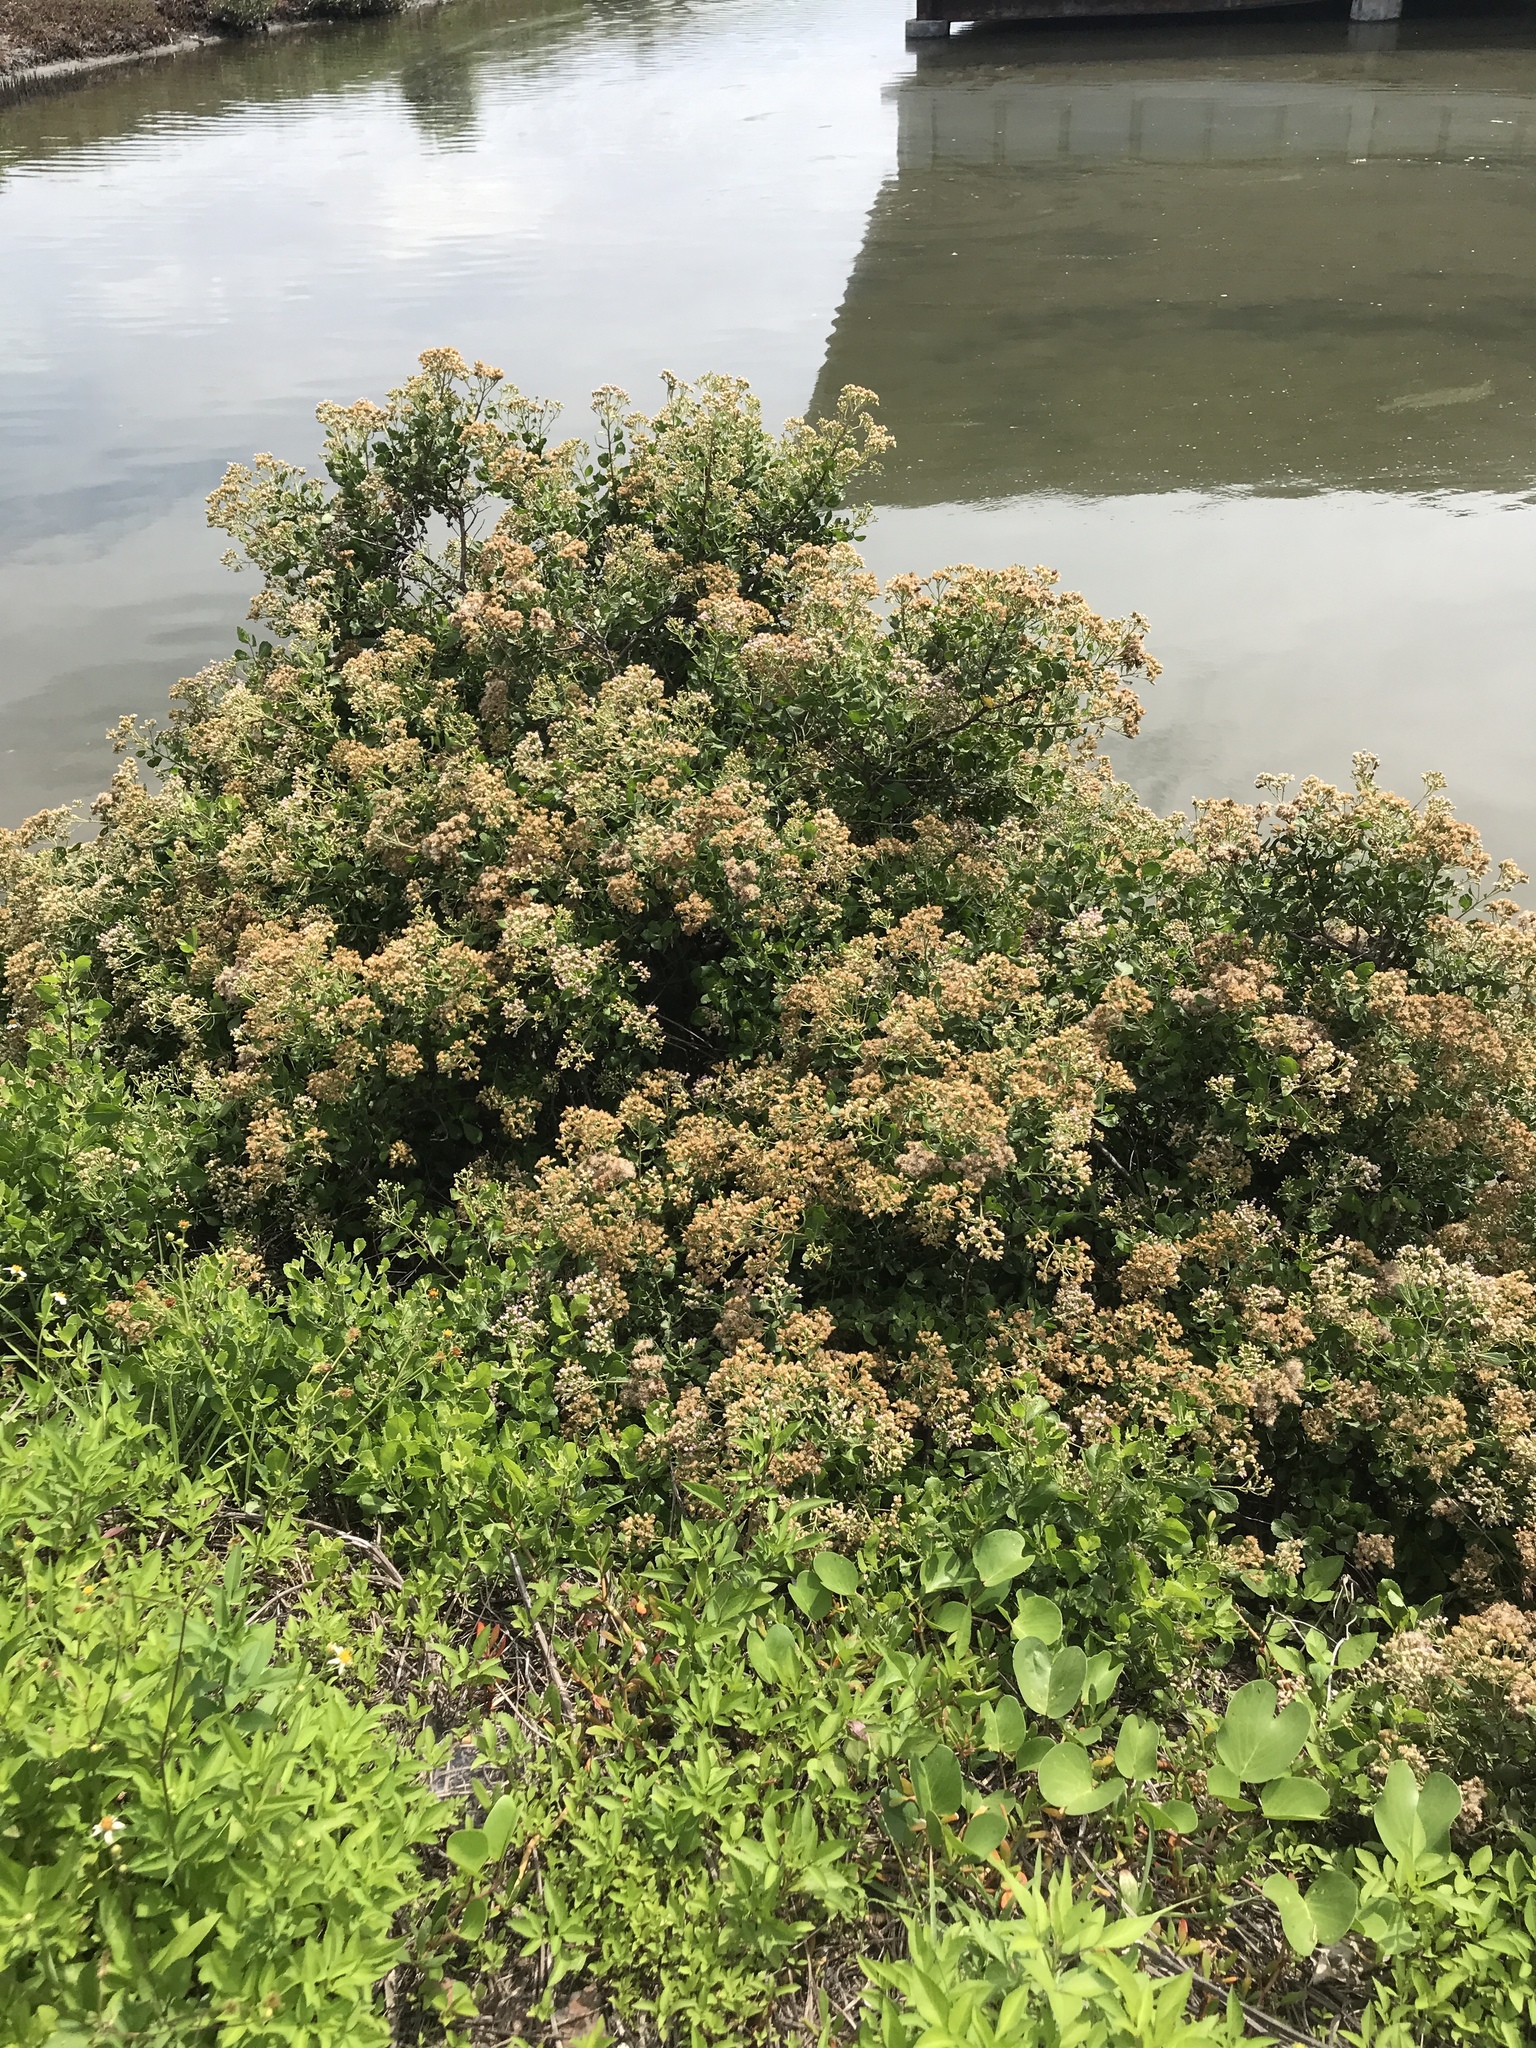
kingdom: Plantae
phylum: Tracheophyta
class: Magnoliopsida
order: Asterales
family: Asteraceae
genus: Pluchea
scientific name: Pluchea indica
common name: Indian fleabane
